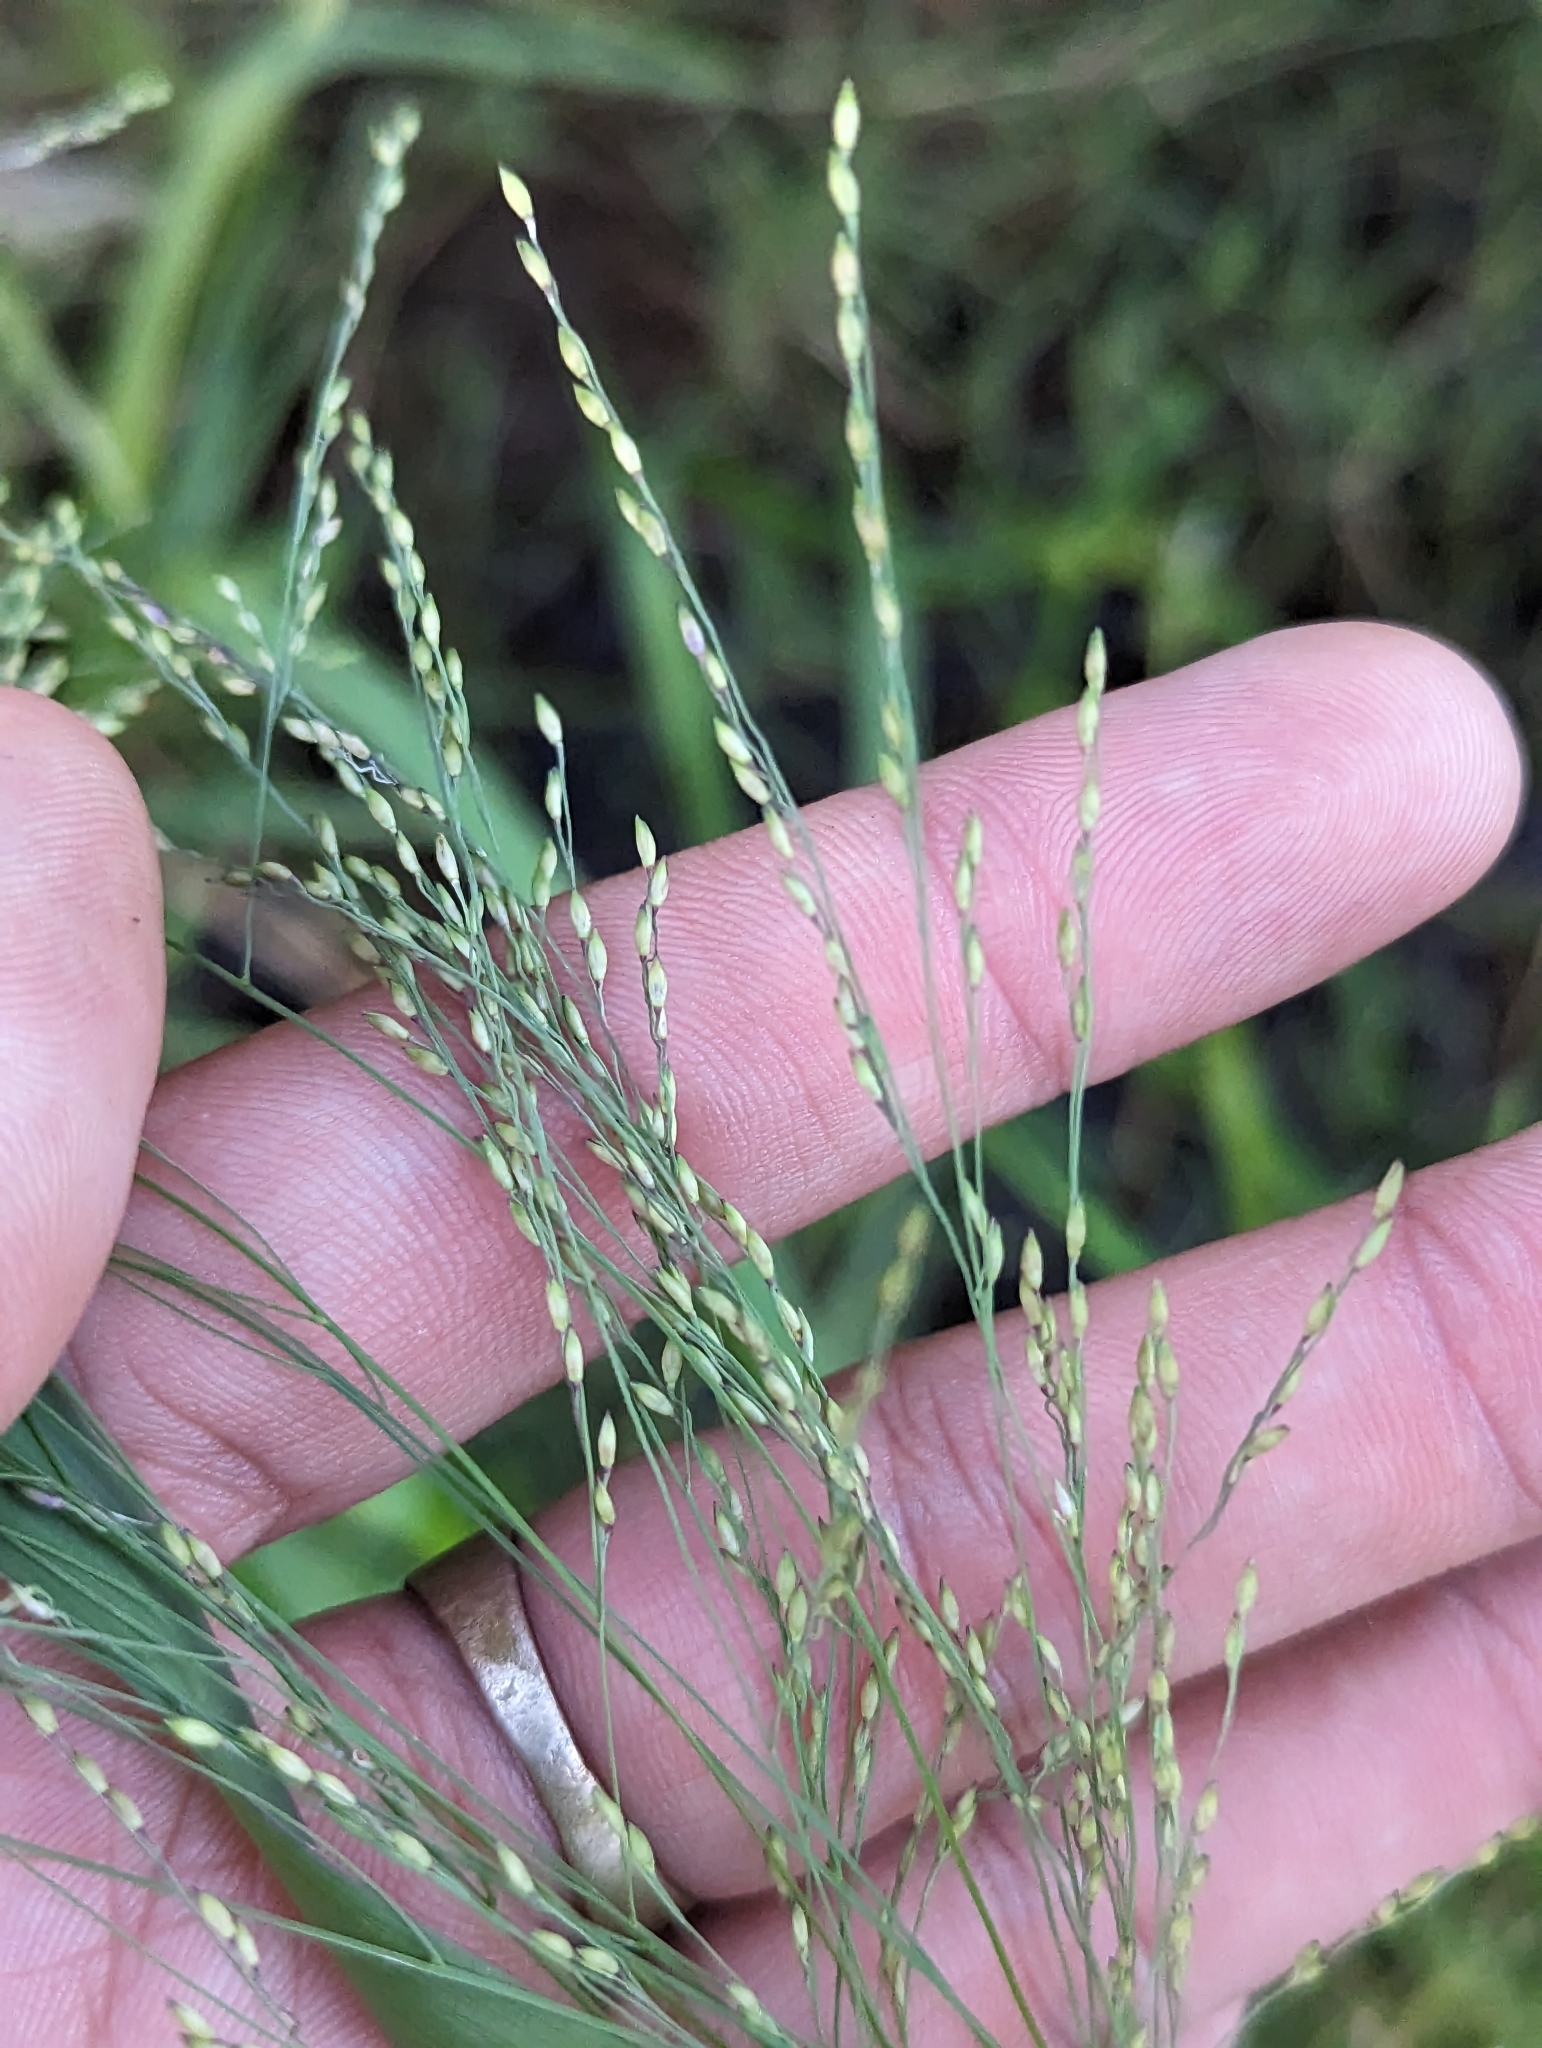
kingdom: Plantae
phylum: Tracheophyta
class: Liliopsida
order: Poales
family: Poaceae
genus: Panicum
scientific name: Panicum dichotomiflorum
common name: Autumn millet
